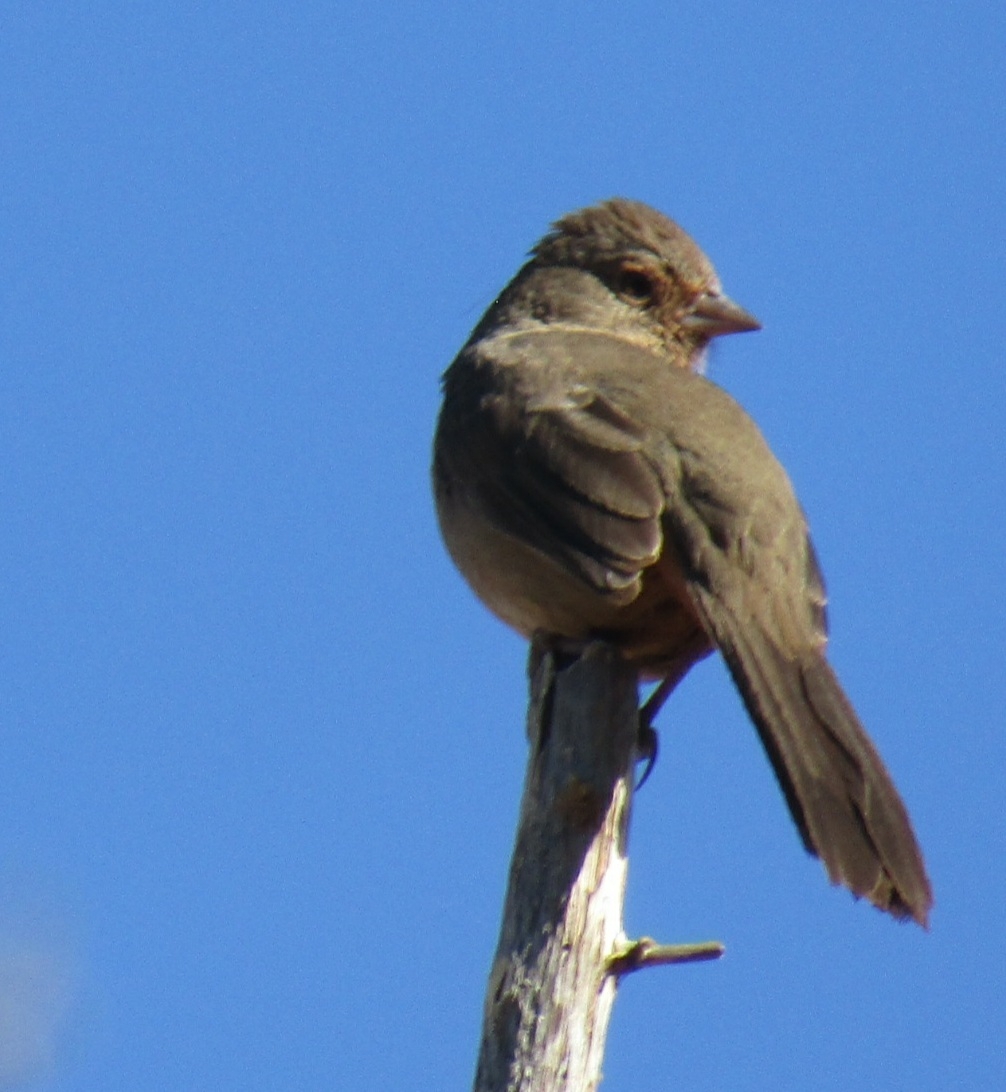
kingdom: Animalia
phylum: Chordata
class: Aves
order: Passeriformes
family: Passerellidae
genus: Melozone
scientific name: Melozone crissalis
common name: California towhee
